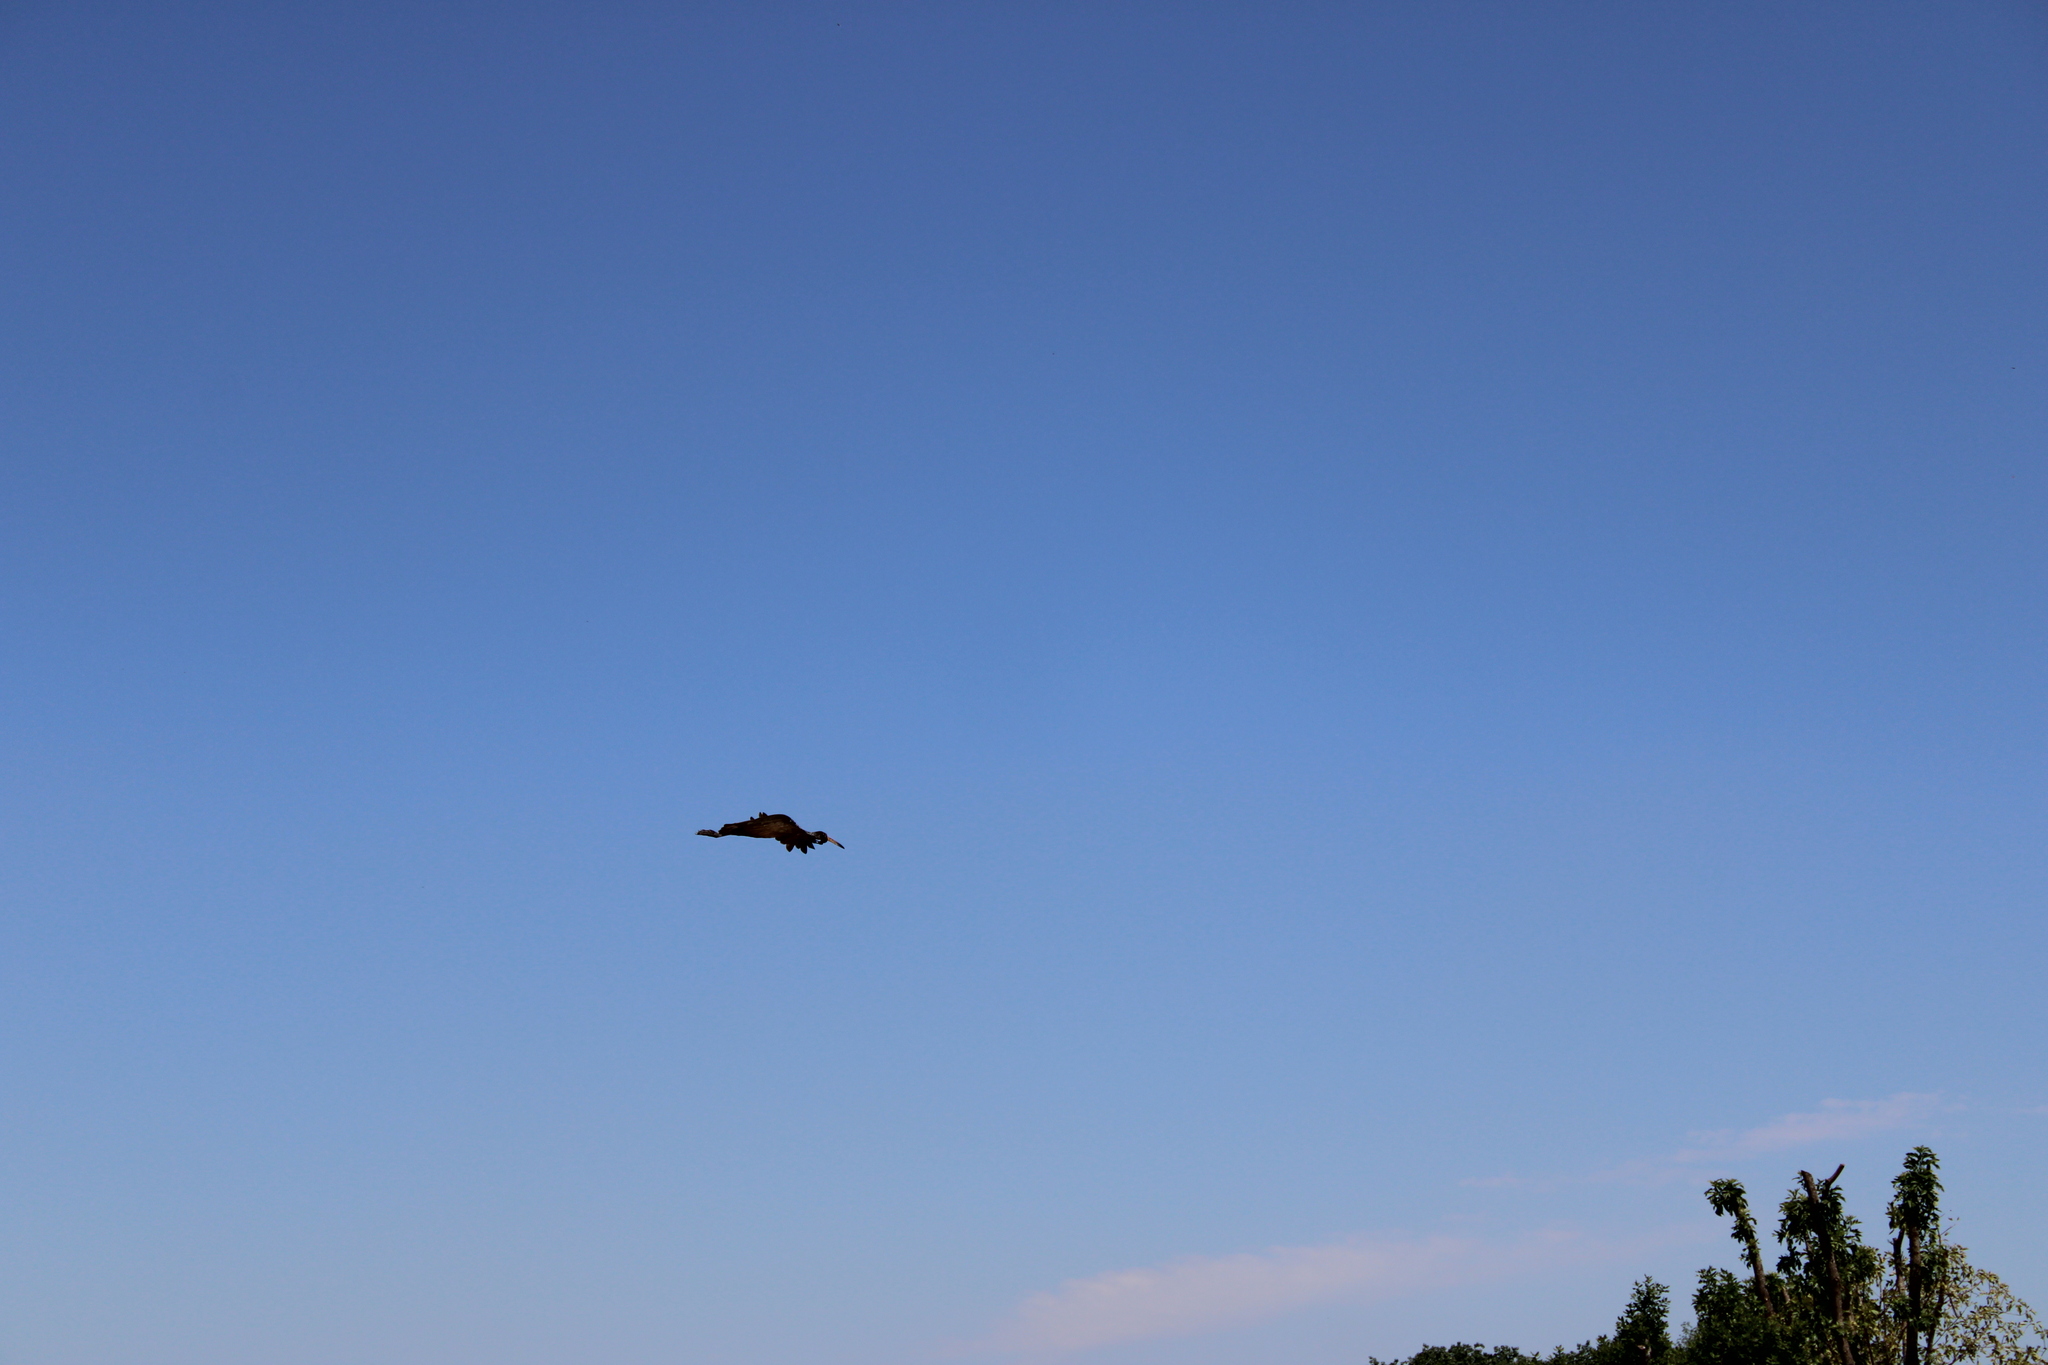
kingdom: Animalia
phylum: Chordata
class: Aves
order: Gruiformes
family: Aramidae
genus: Aramus
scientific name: Aramus guarauna
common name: Limpkin
